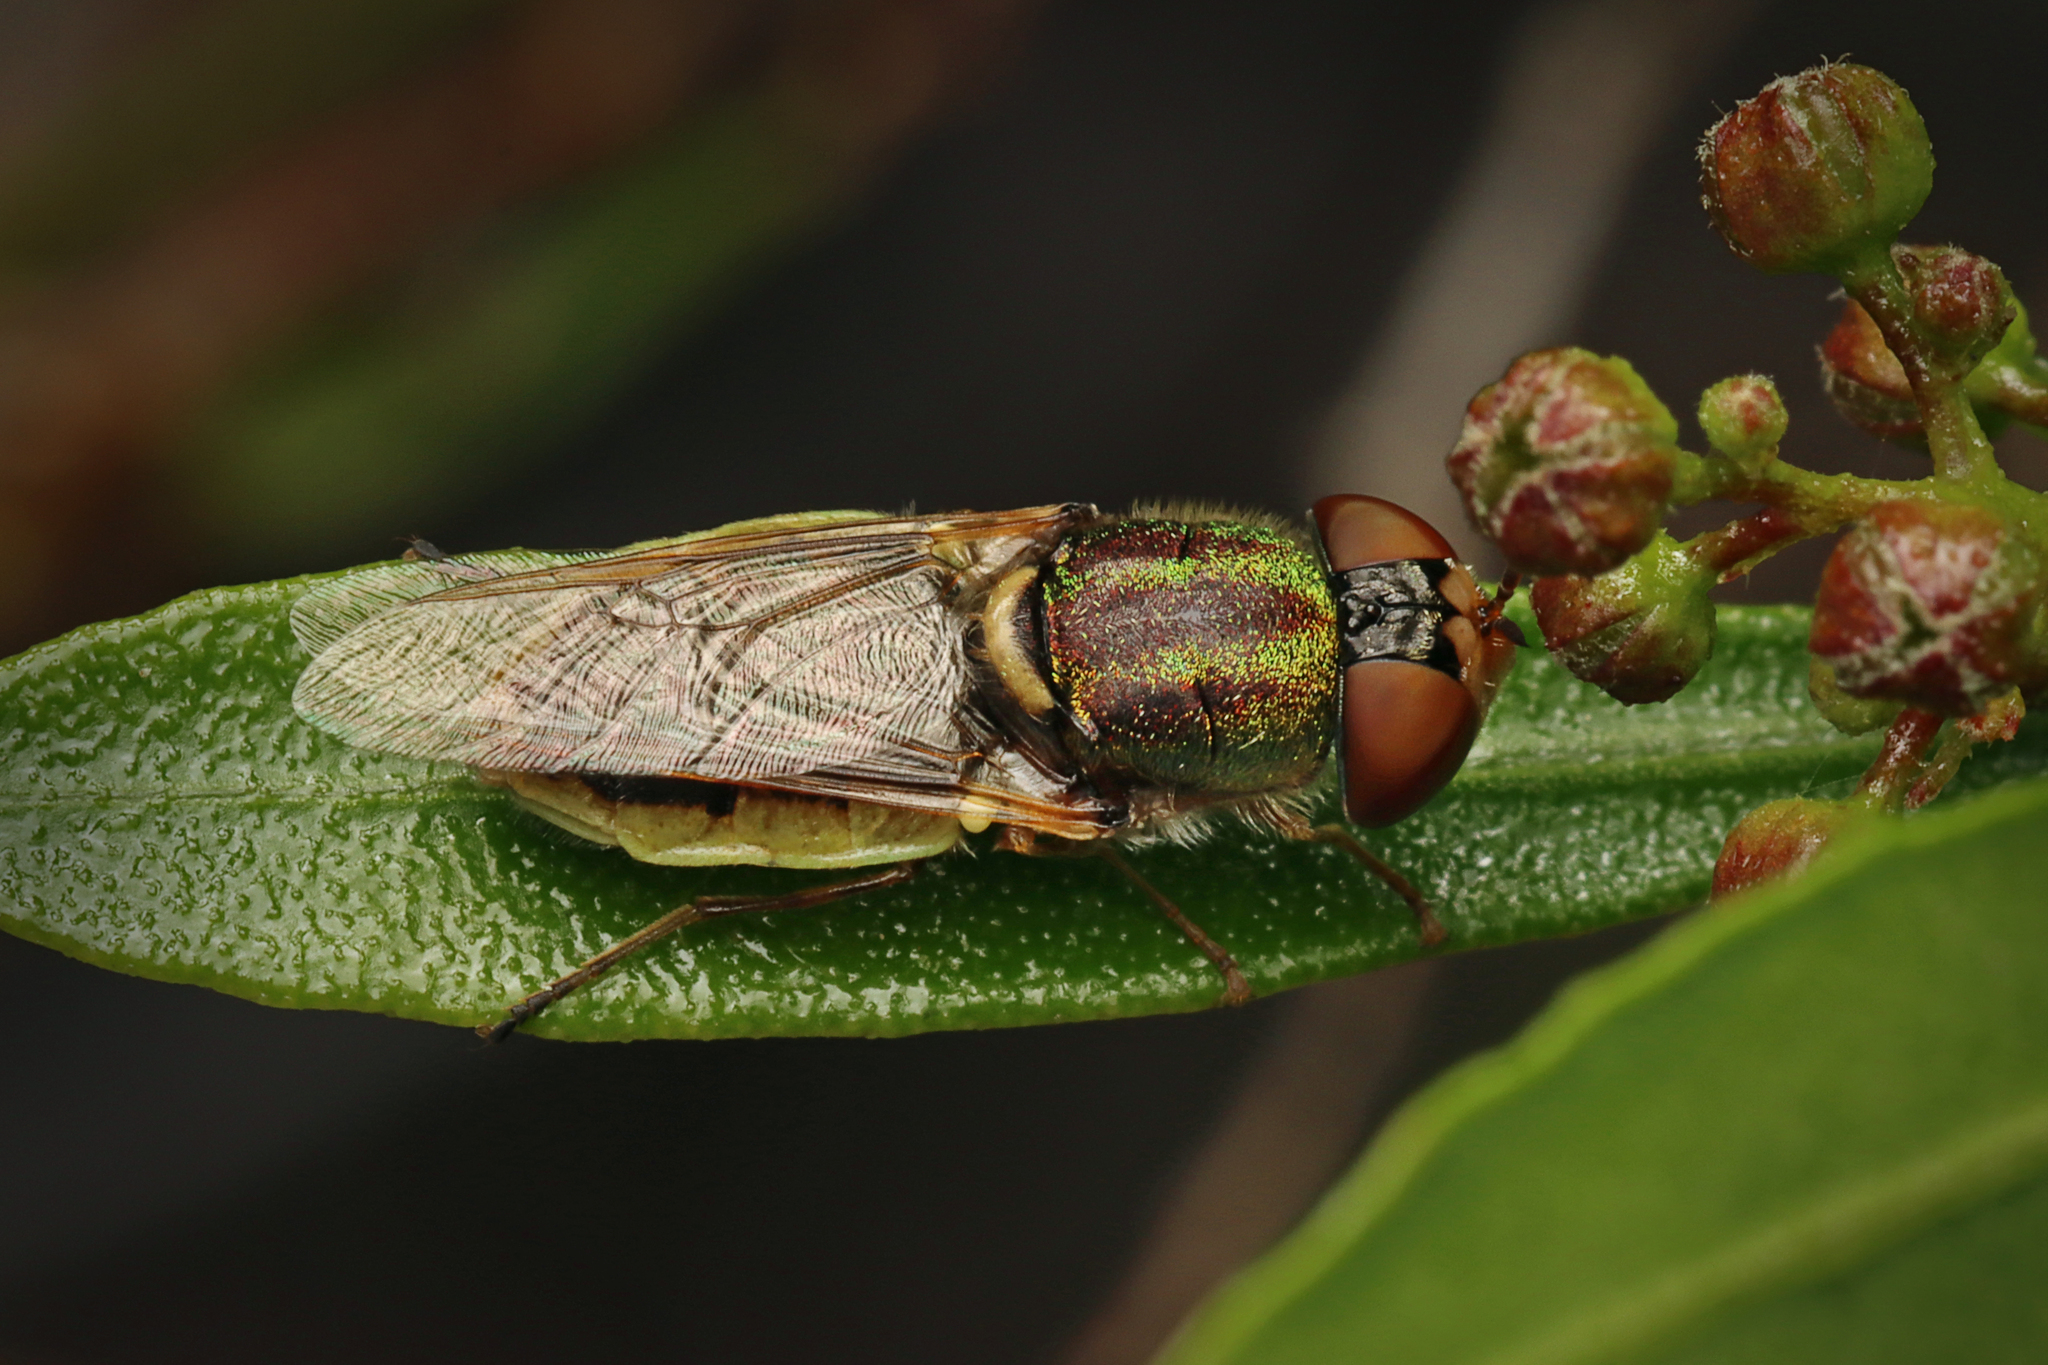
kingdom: Animalia
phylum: Arthropoda
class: Insecta
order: Diptera
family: Stratiomyidae
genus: Odontomyia
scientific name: Odontomyia decipiens
